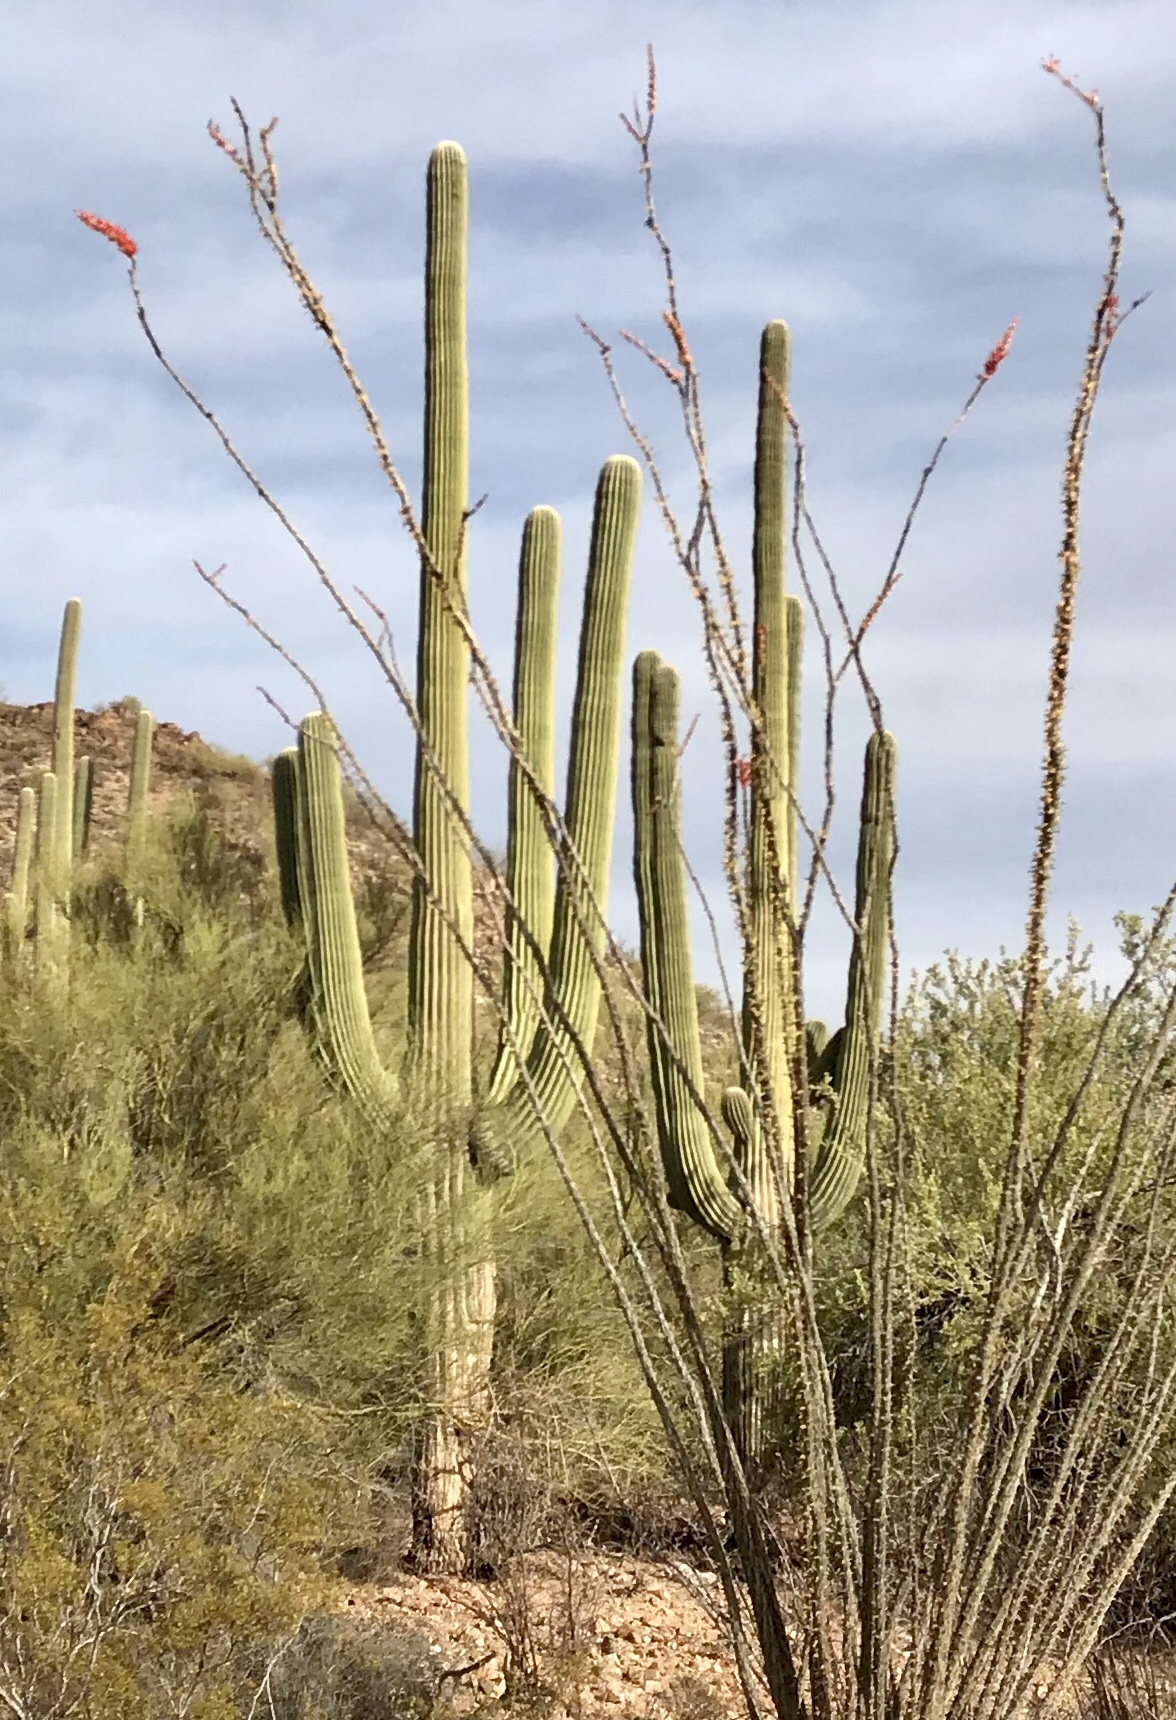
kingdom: Plantae
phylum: Tracheophyta
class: Magnoliopsida
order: Caryophyllales
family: Cactaceae
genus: Carnegiea
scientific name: Carnegiea gigantea
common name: Saguaro
